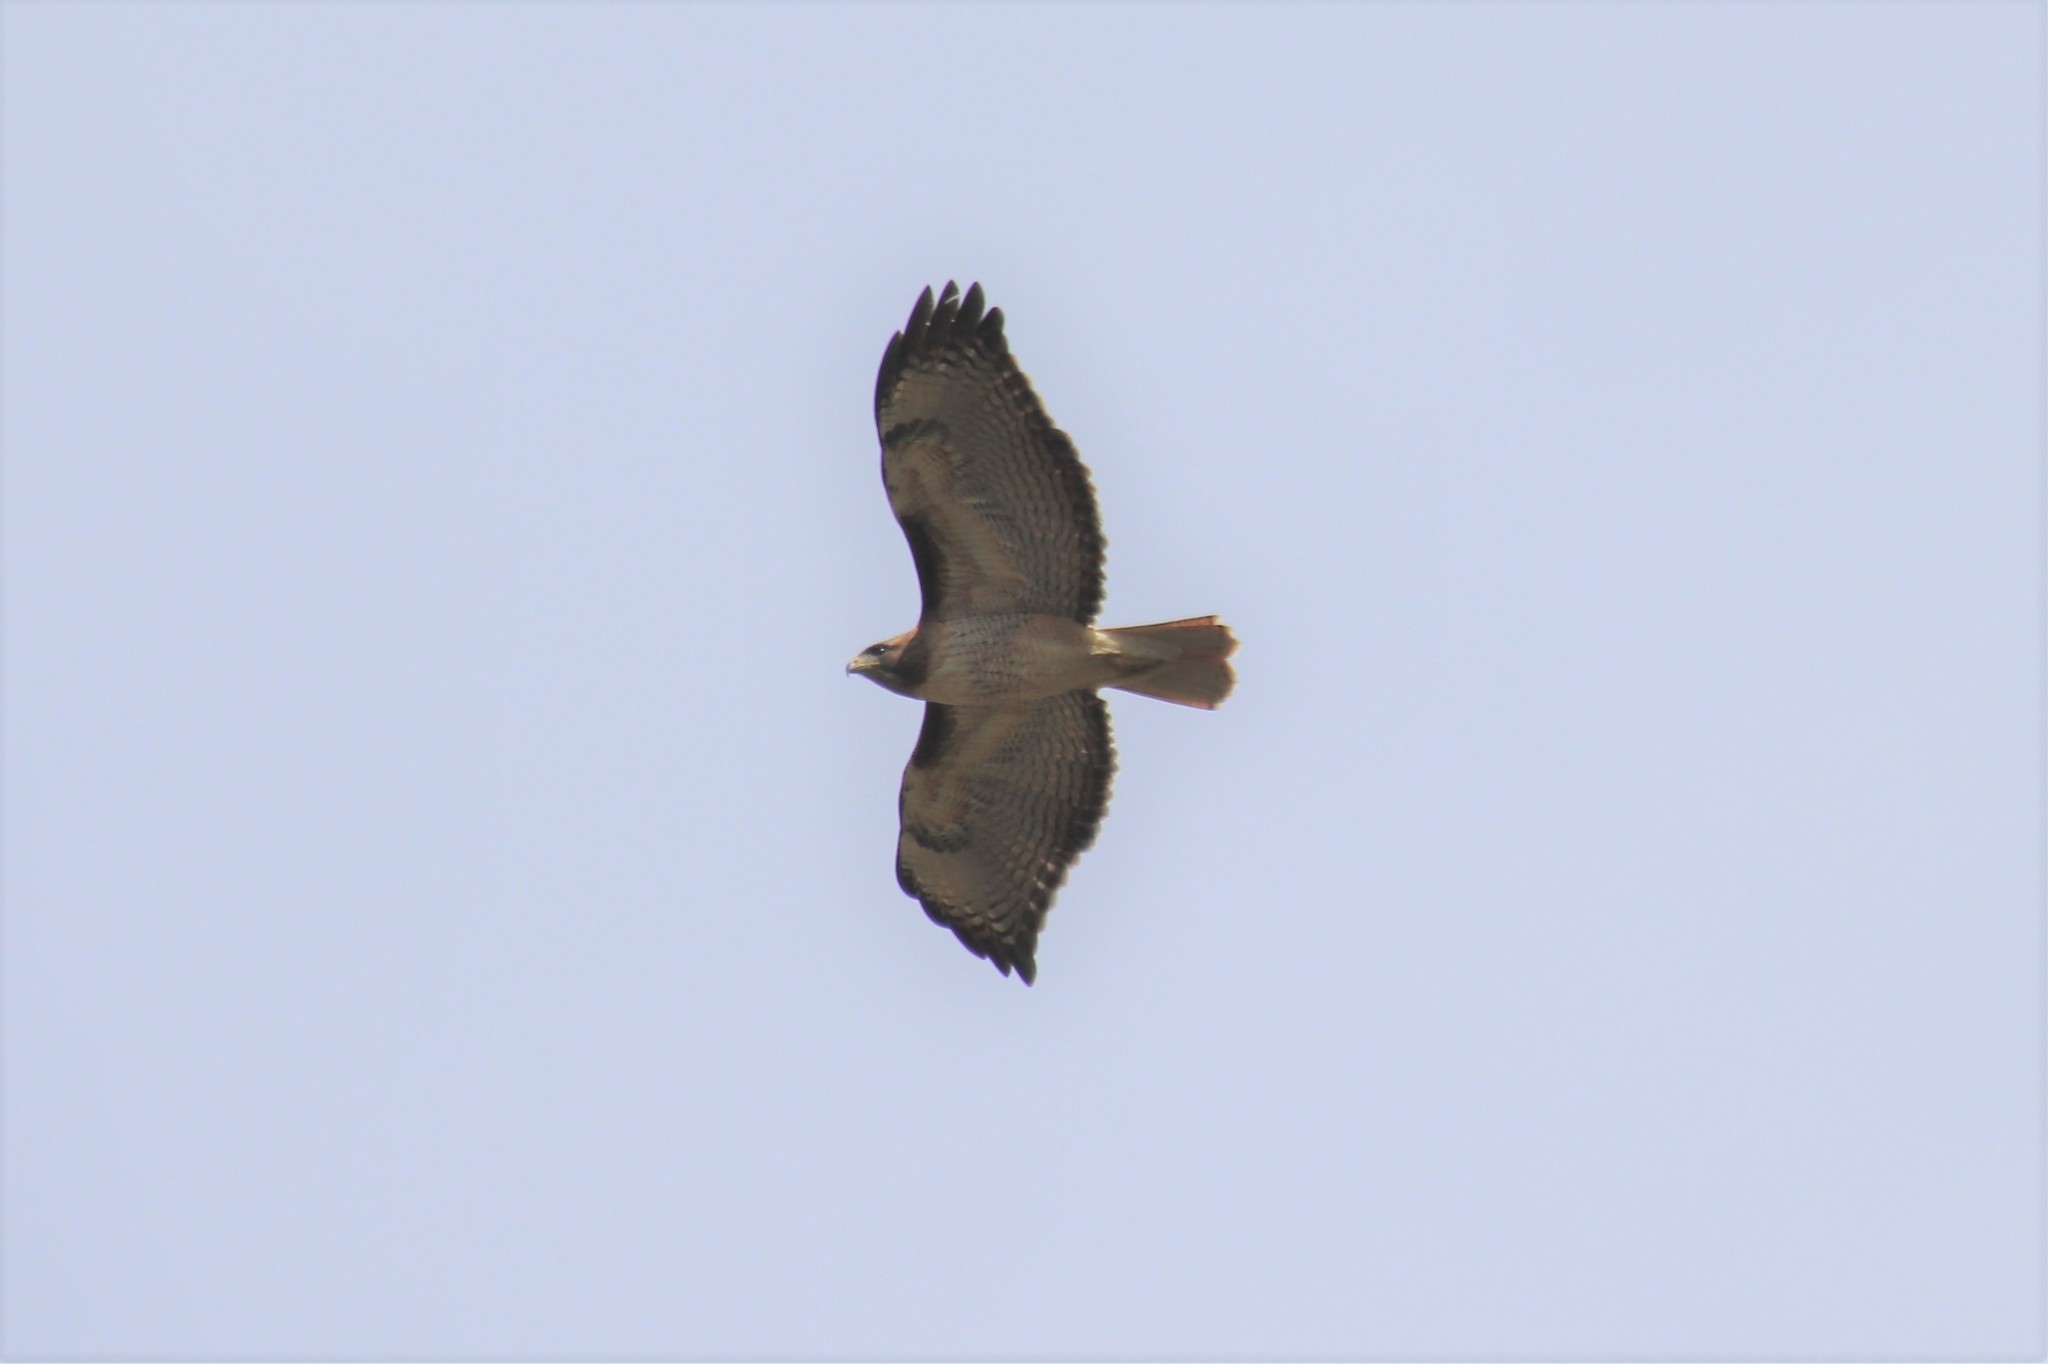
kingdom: Animalia
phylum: Chordata
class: Aves
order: Accipitriformes
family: Accipitridae
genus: Buteo
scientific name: Buteo jamaicensis
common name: Red-tailed hawk
